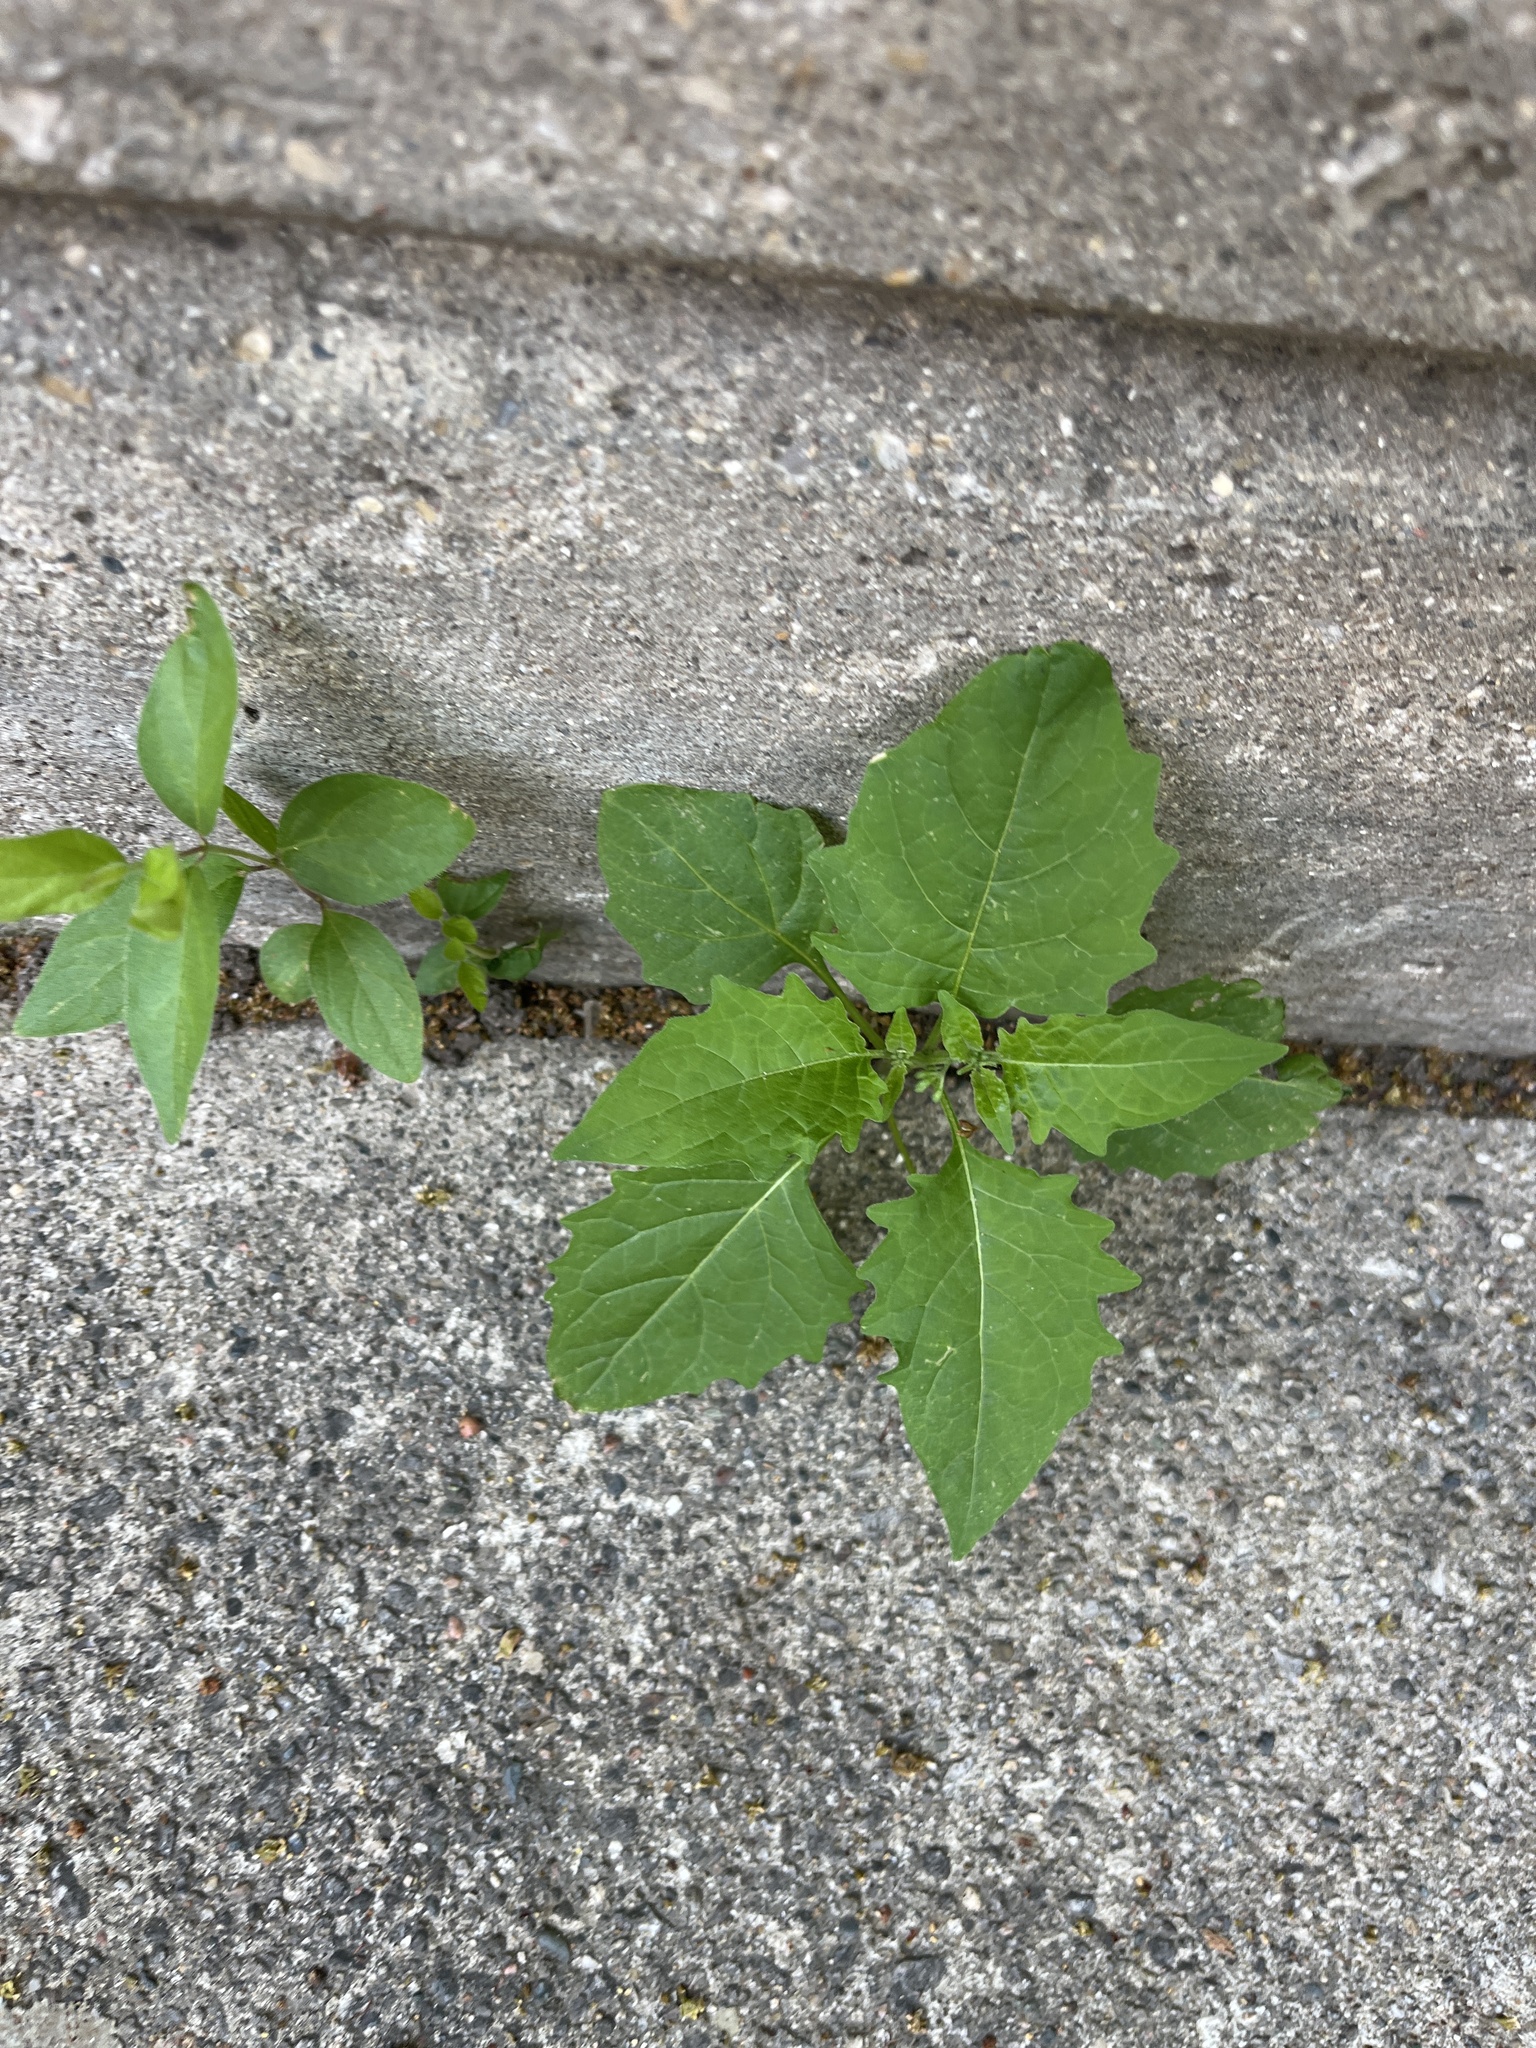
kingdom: Plantae
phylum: Tracheophyta
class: Magnoliopsida
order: Solanales
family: Solanaceae
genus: Solanum
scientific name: Solanum emulans
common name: Eastern black nightshade
